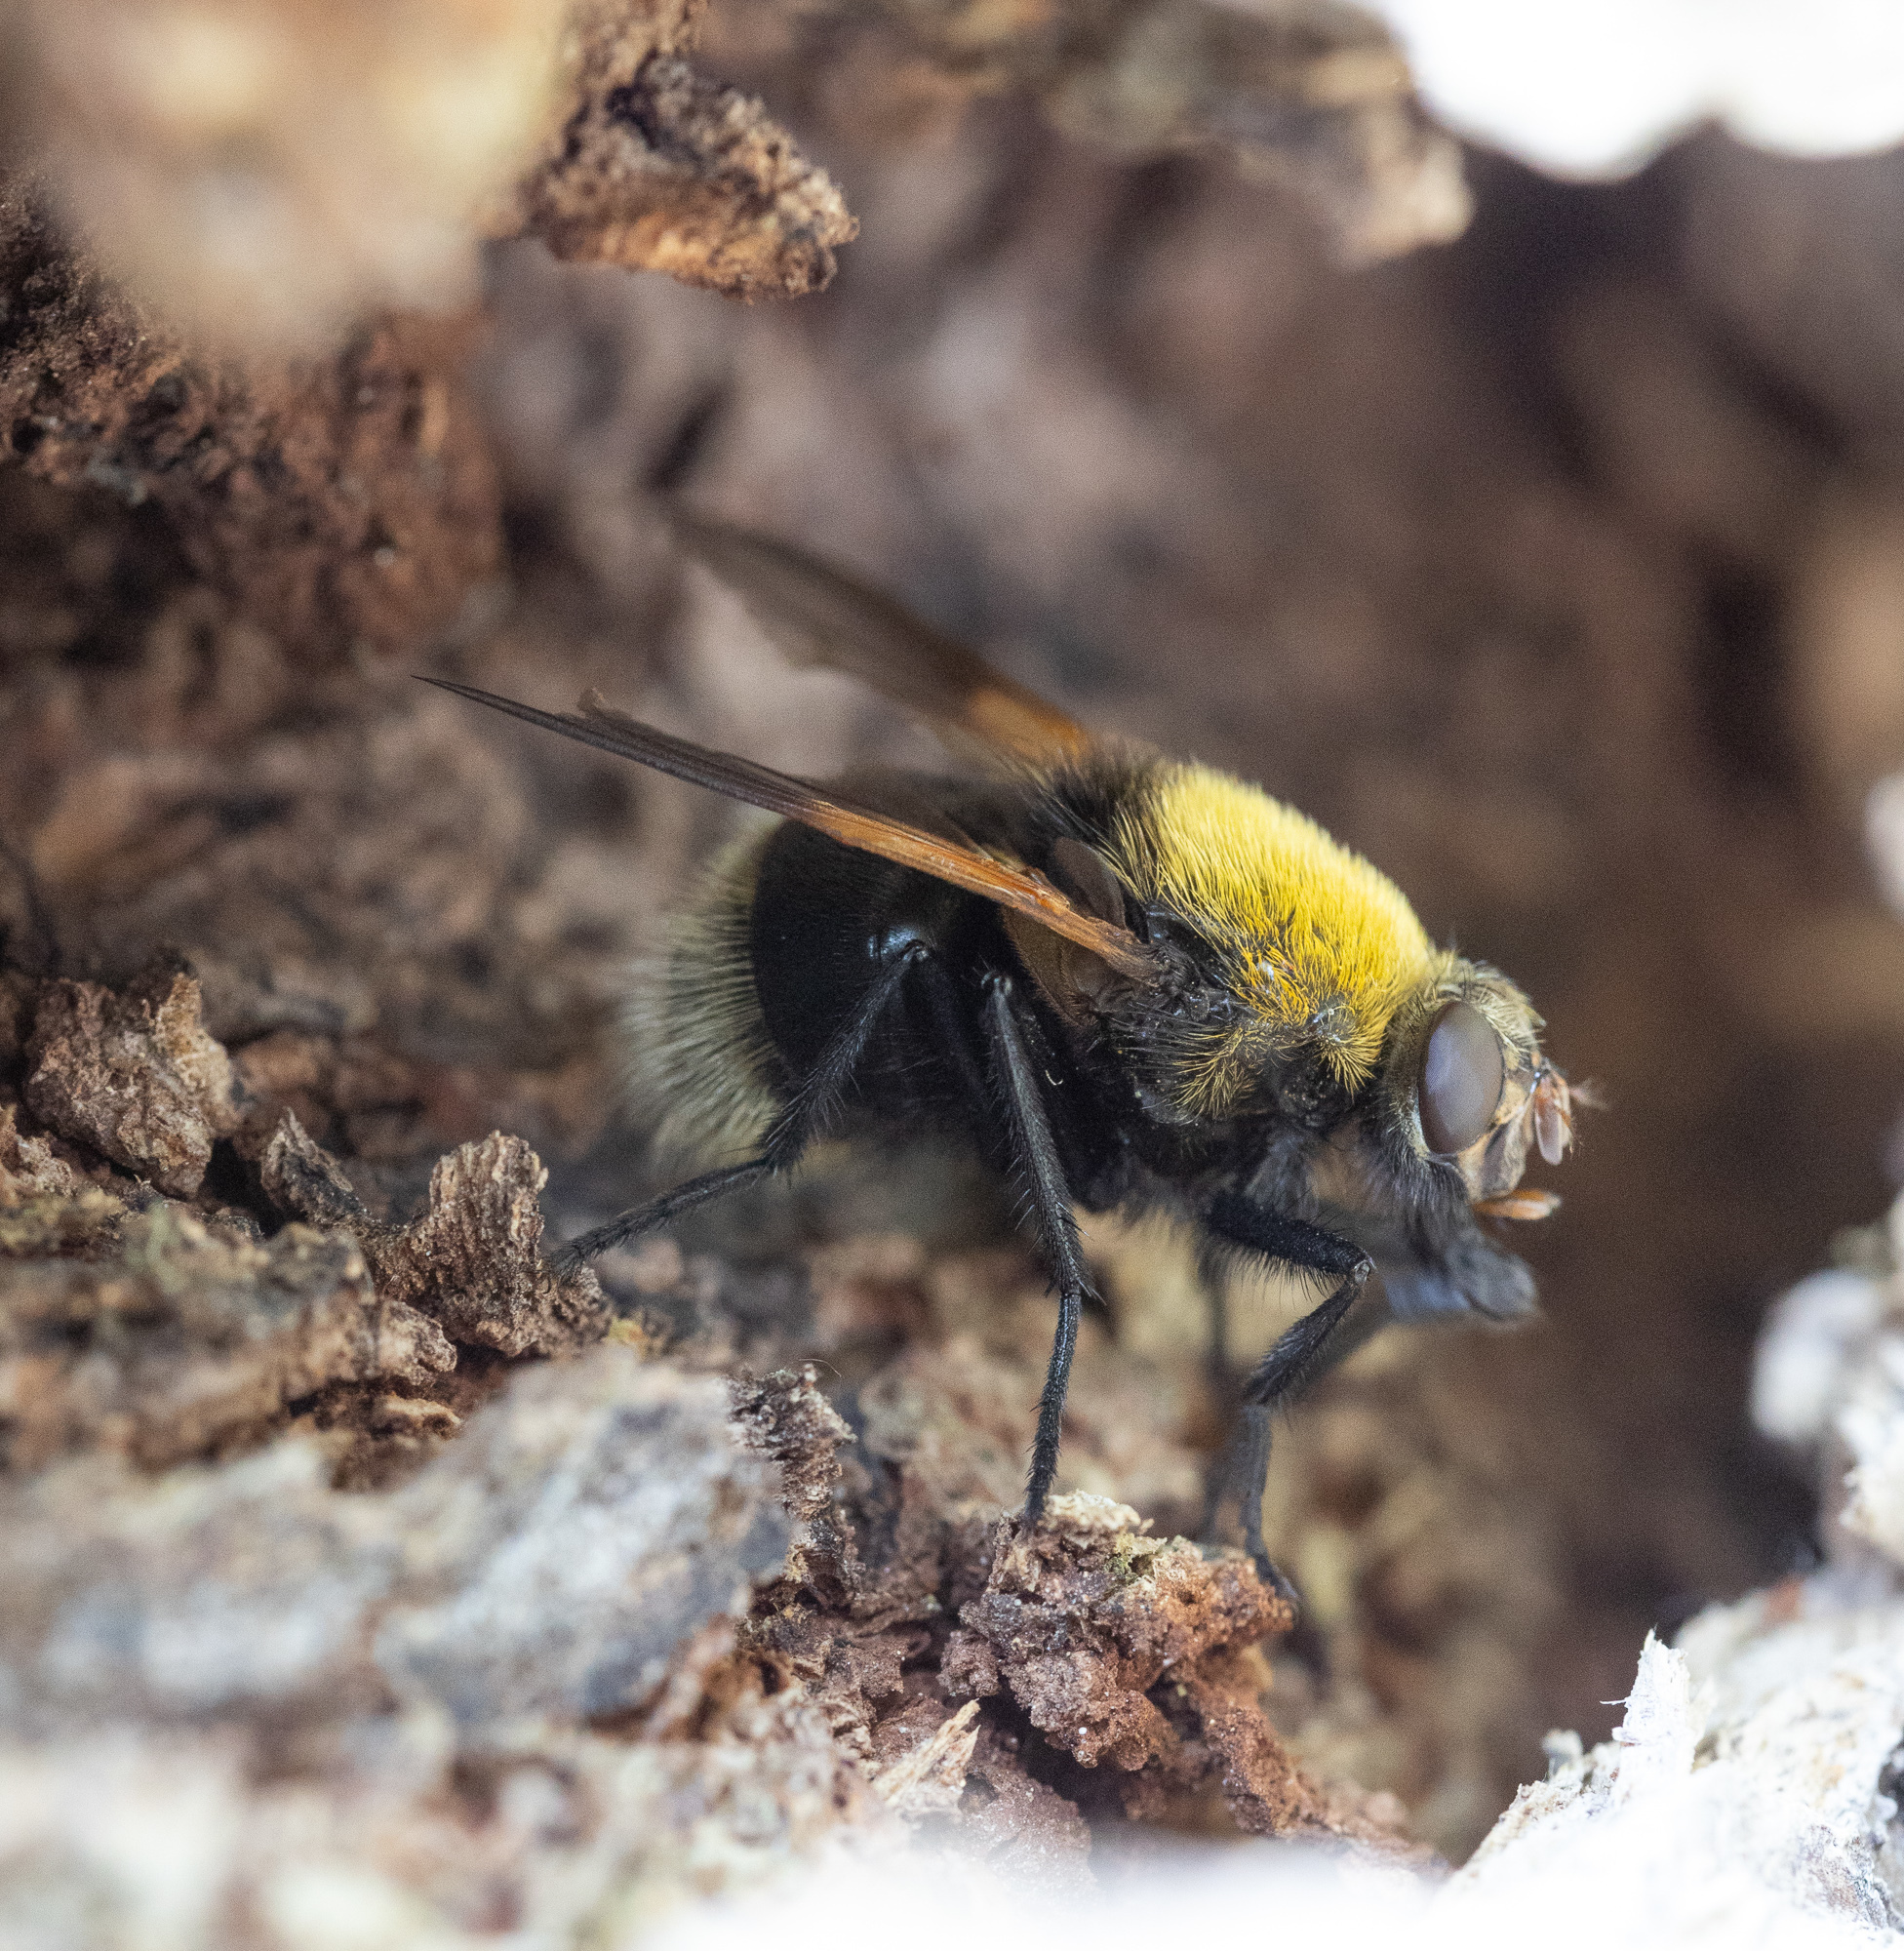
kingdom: Animalia
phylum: Arthropoda
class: Insecta
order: Diptera
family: Muscidae
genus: Mesembrina
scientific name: Mesembrina mystacea
